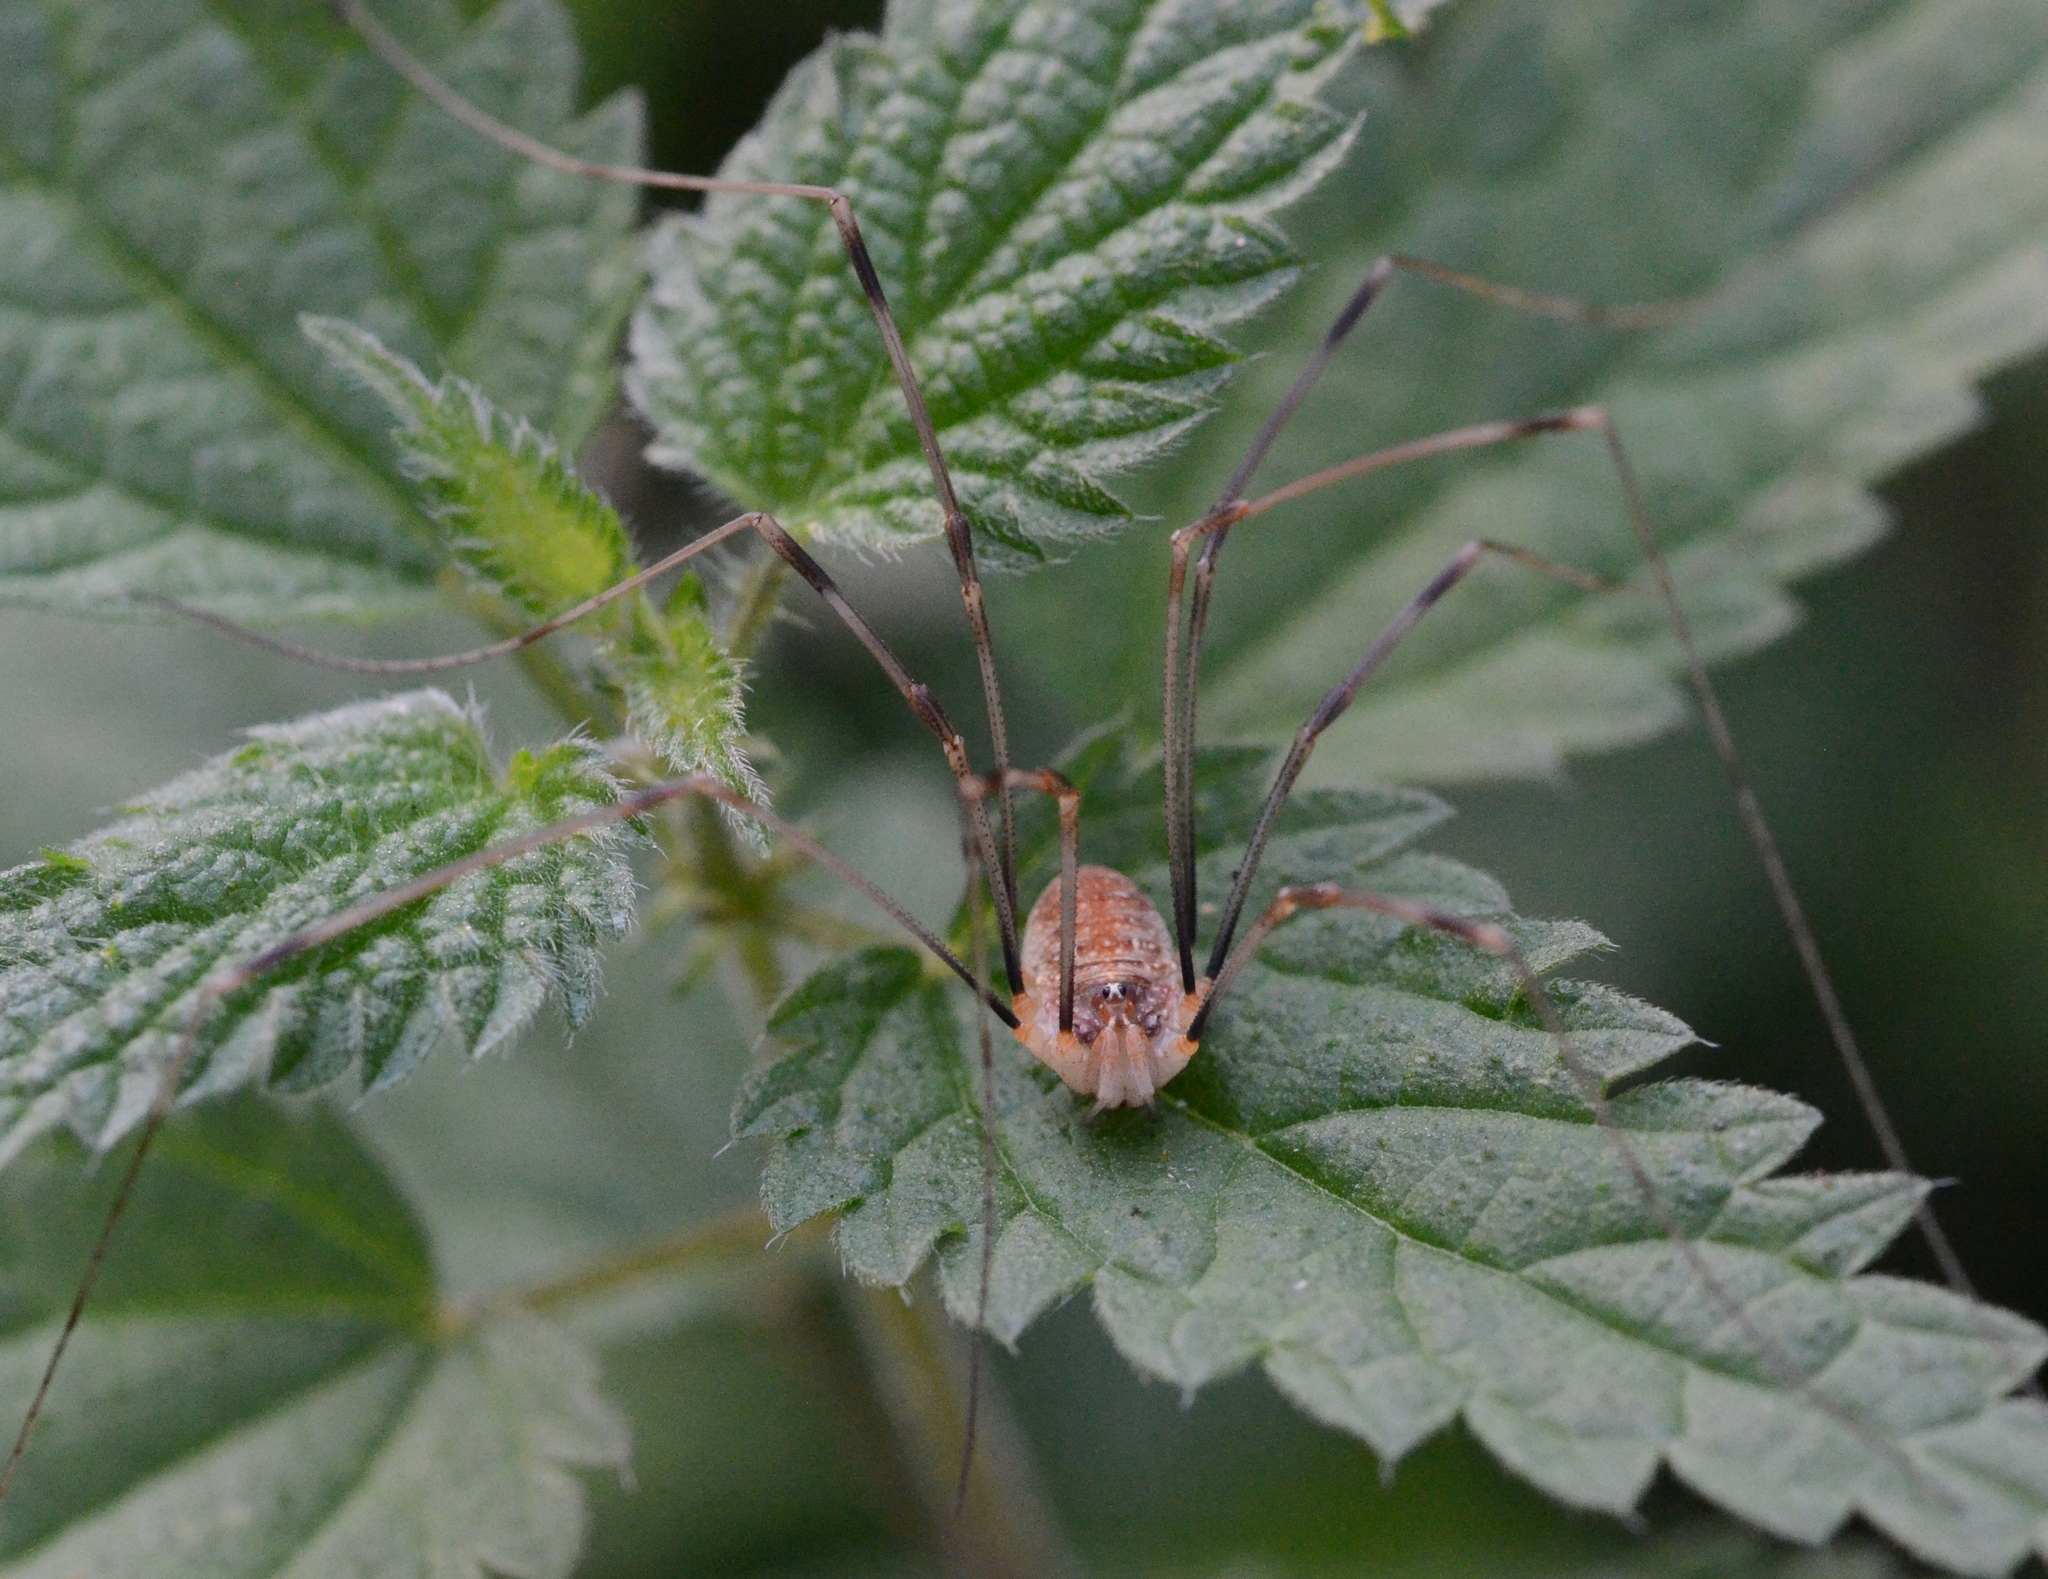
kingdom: Animalia
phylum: Arthropoda
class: Arachnida
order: Opiliones
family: Phalangiidae
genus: Opilio
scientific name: Opilio canestrinii
